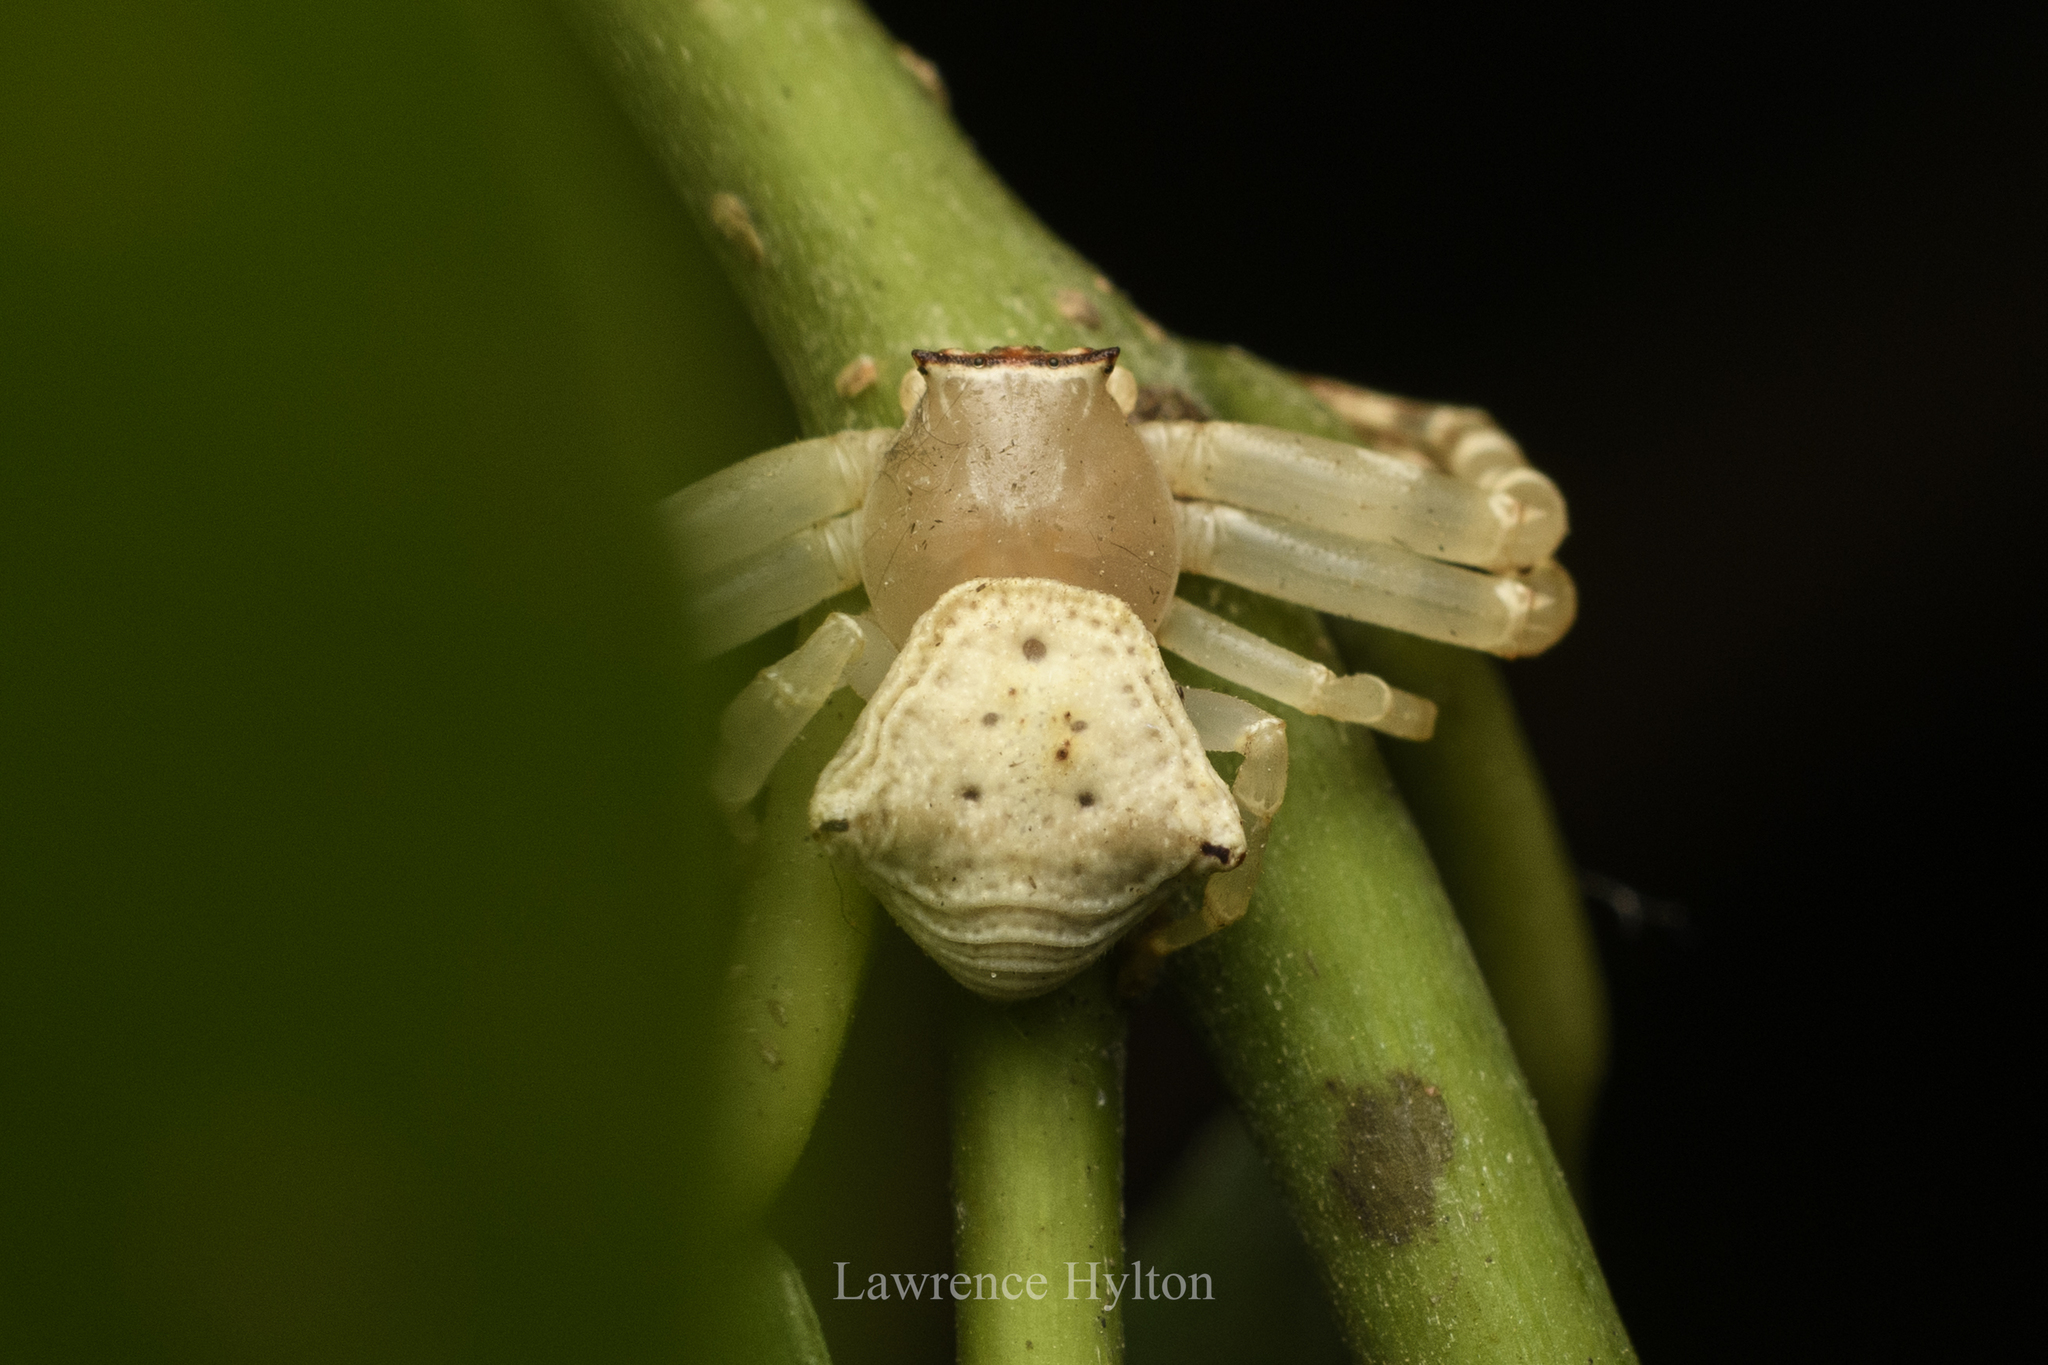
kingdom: Animalia
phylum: Arthropoda
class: Arachnida
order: Araneae
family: Thomisidae
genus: Thomisus
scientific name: Thomisus labefactus
